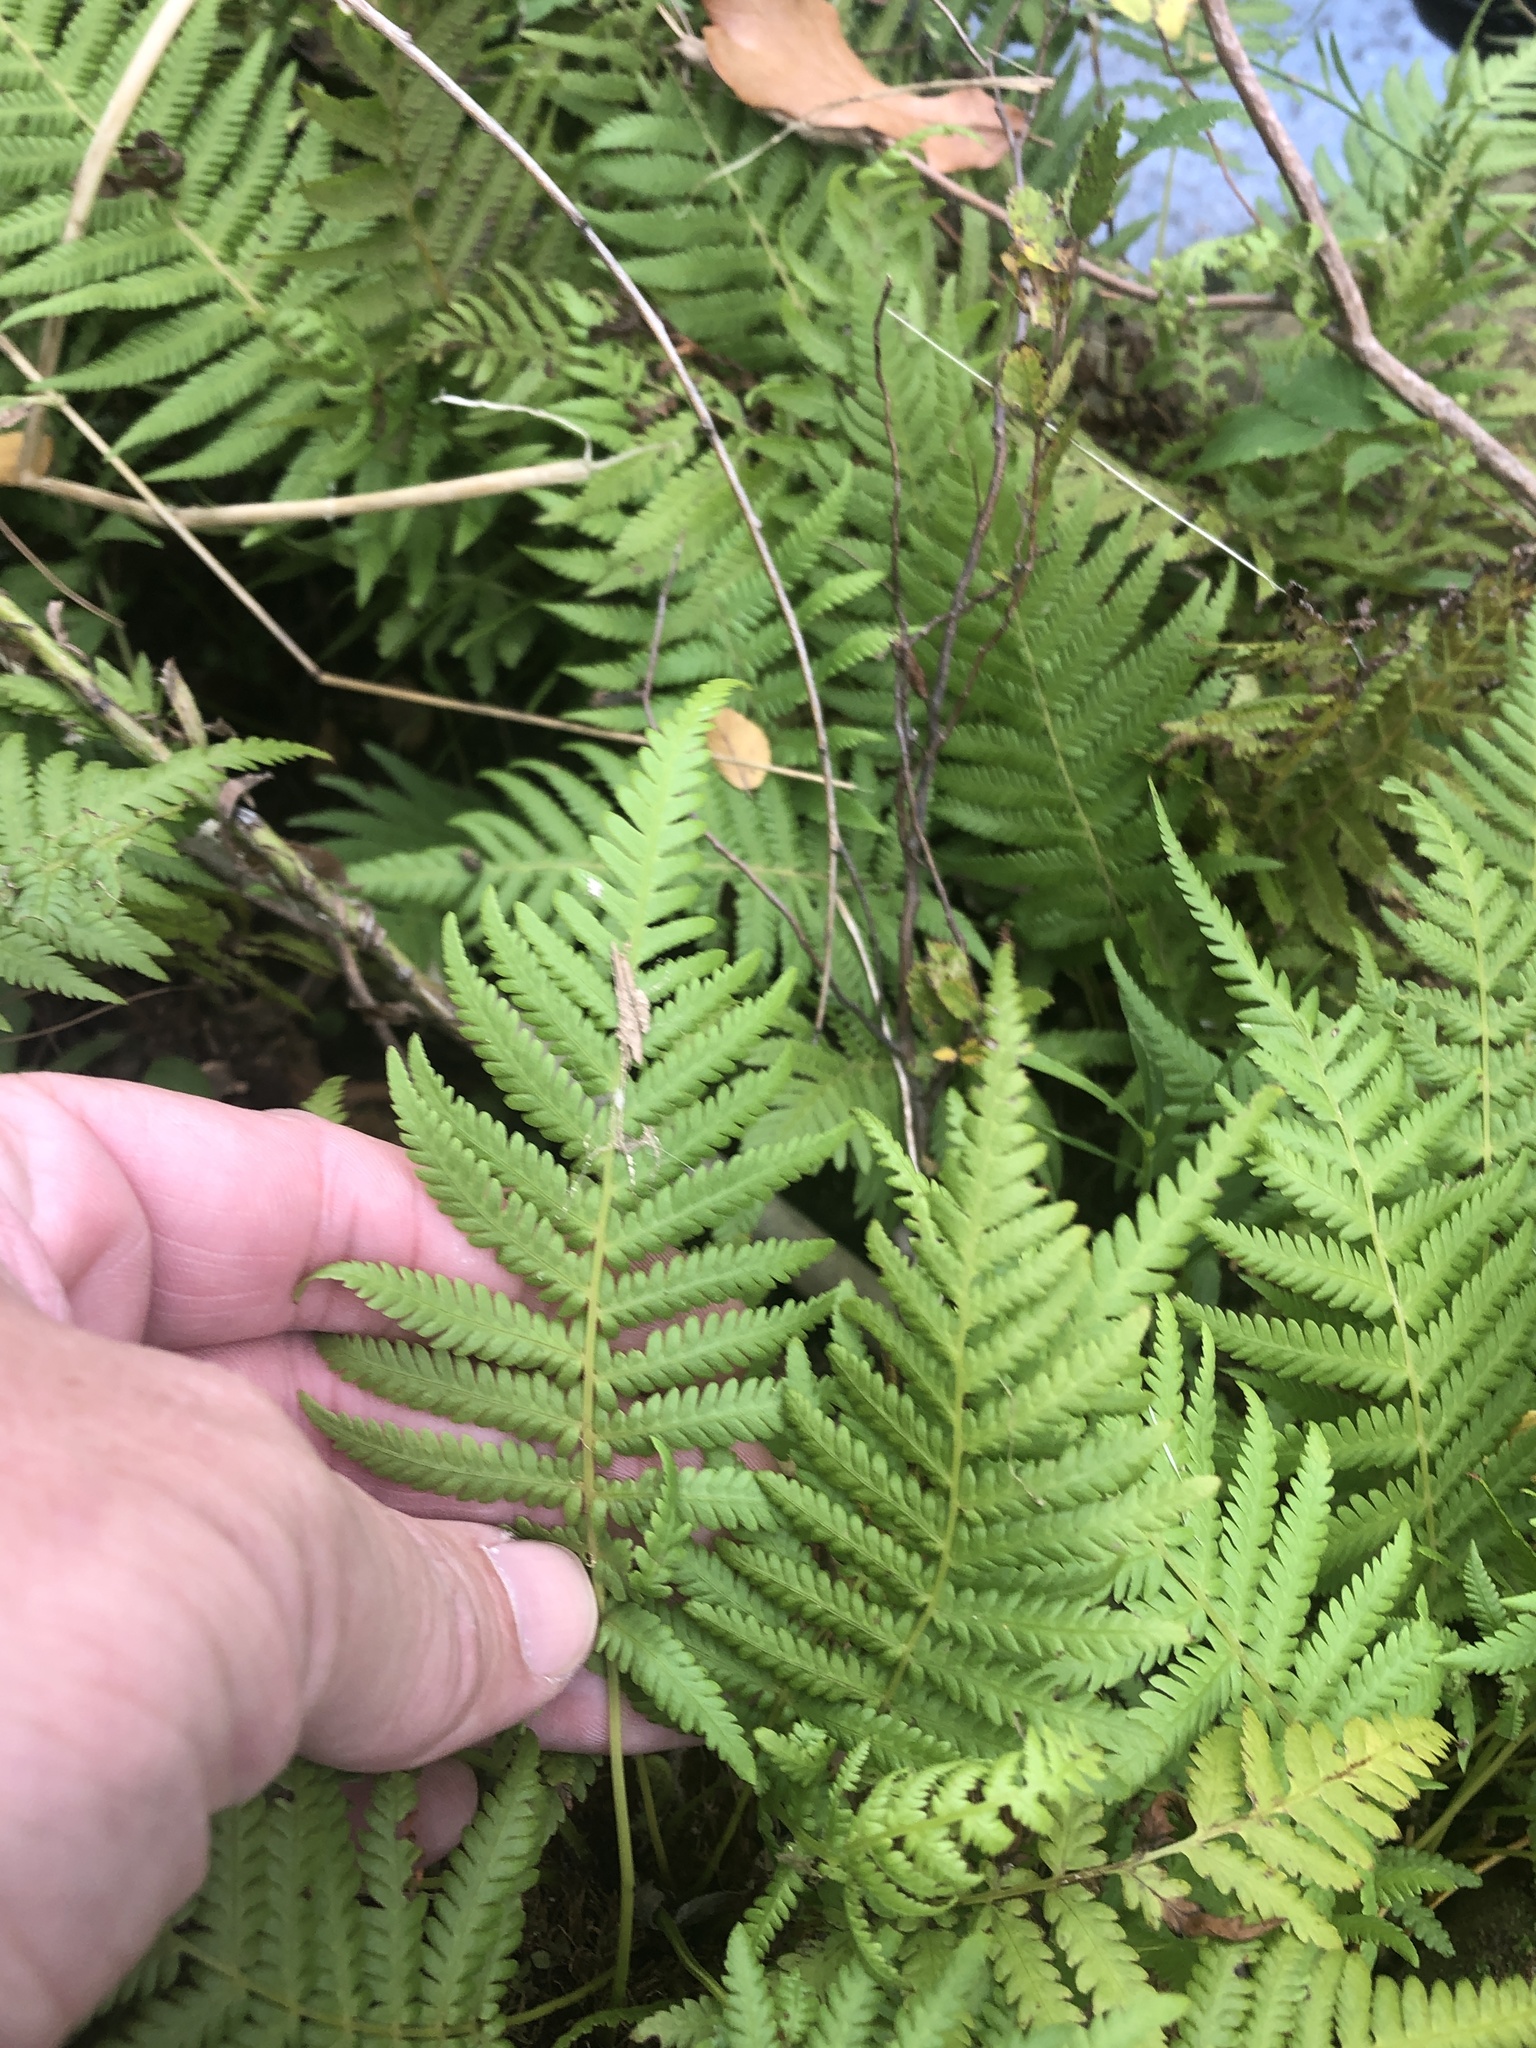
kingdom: Plantae
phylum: Tracheophyta
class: Polypodiopsida
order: Polypodiales
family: Thelypteridaceae
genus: Pelazoneuron
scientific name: Pelazoneuron kunthii
